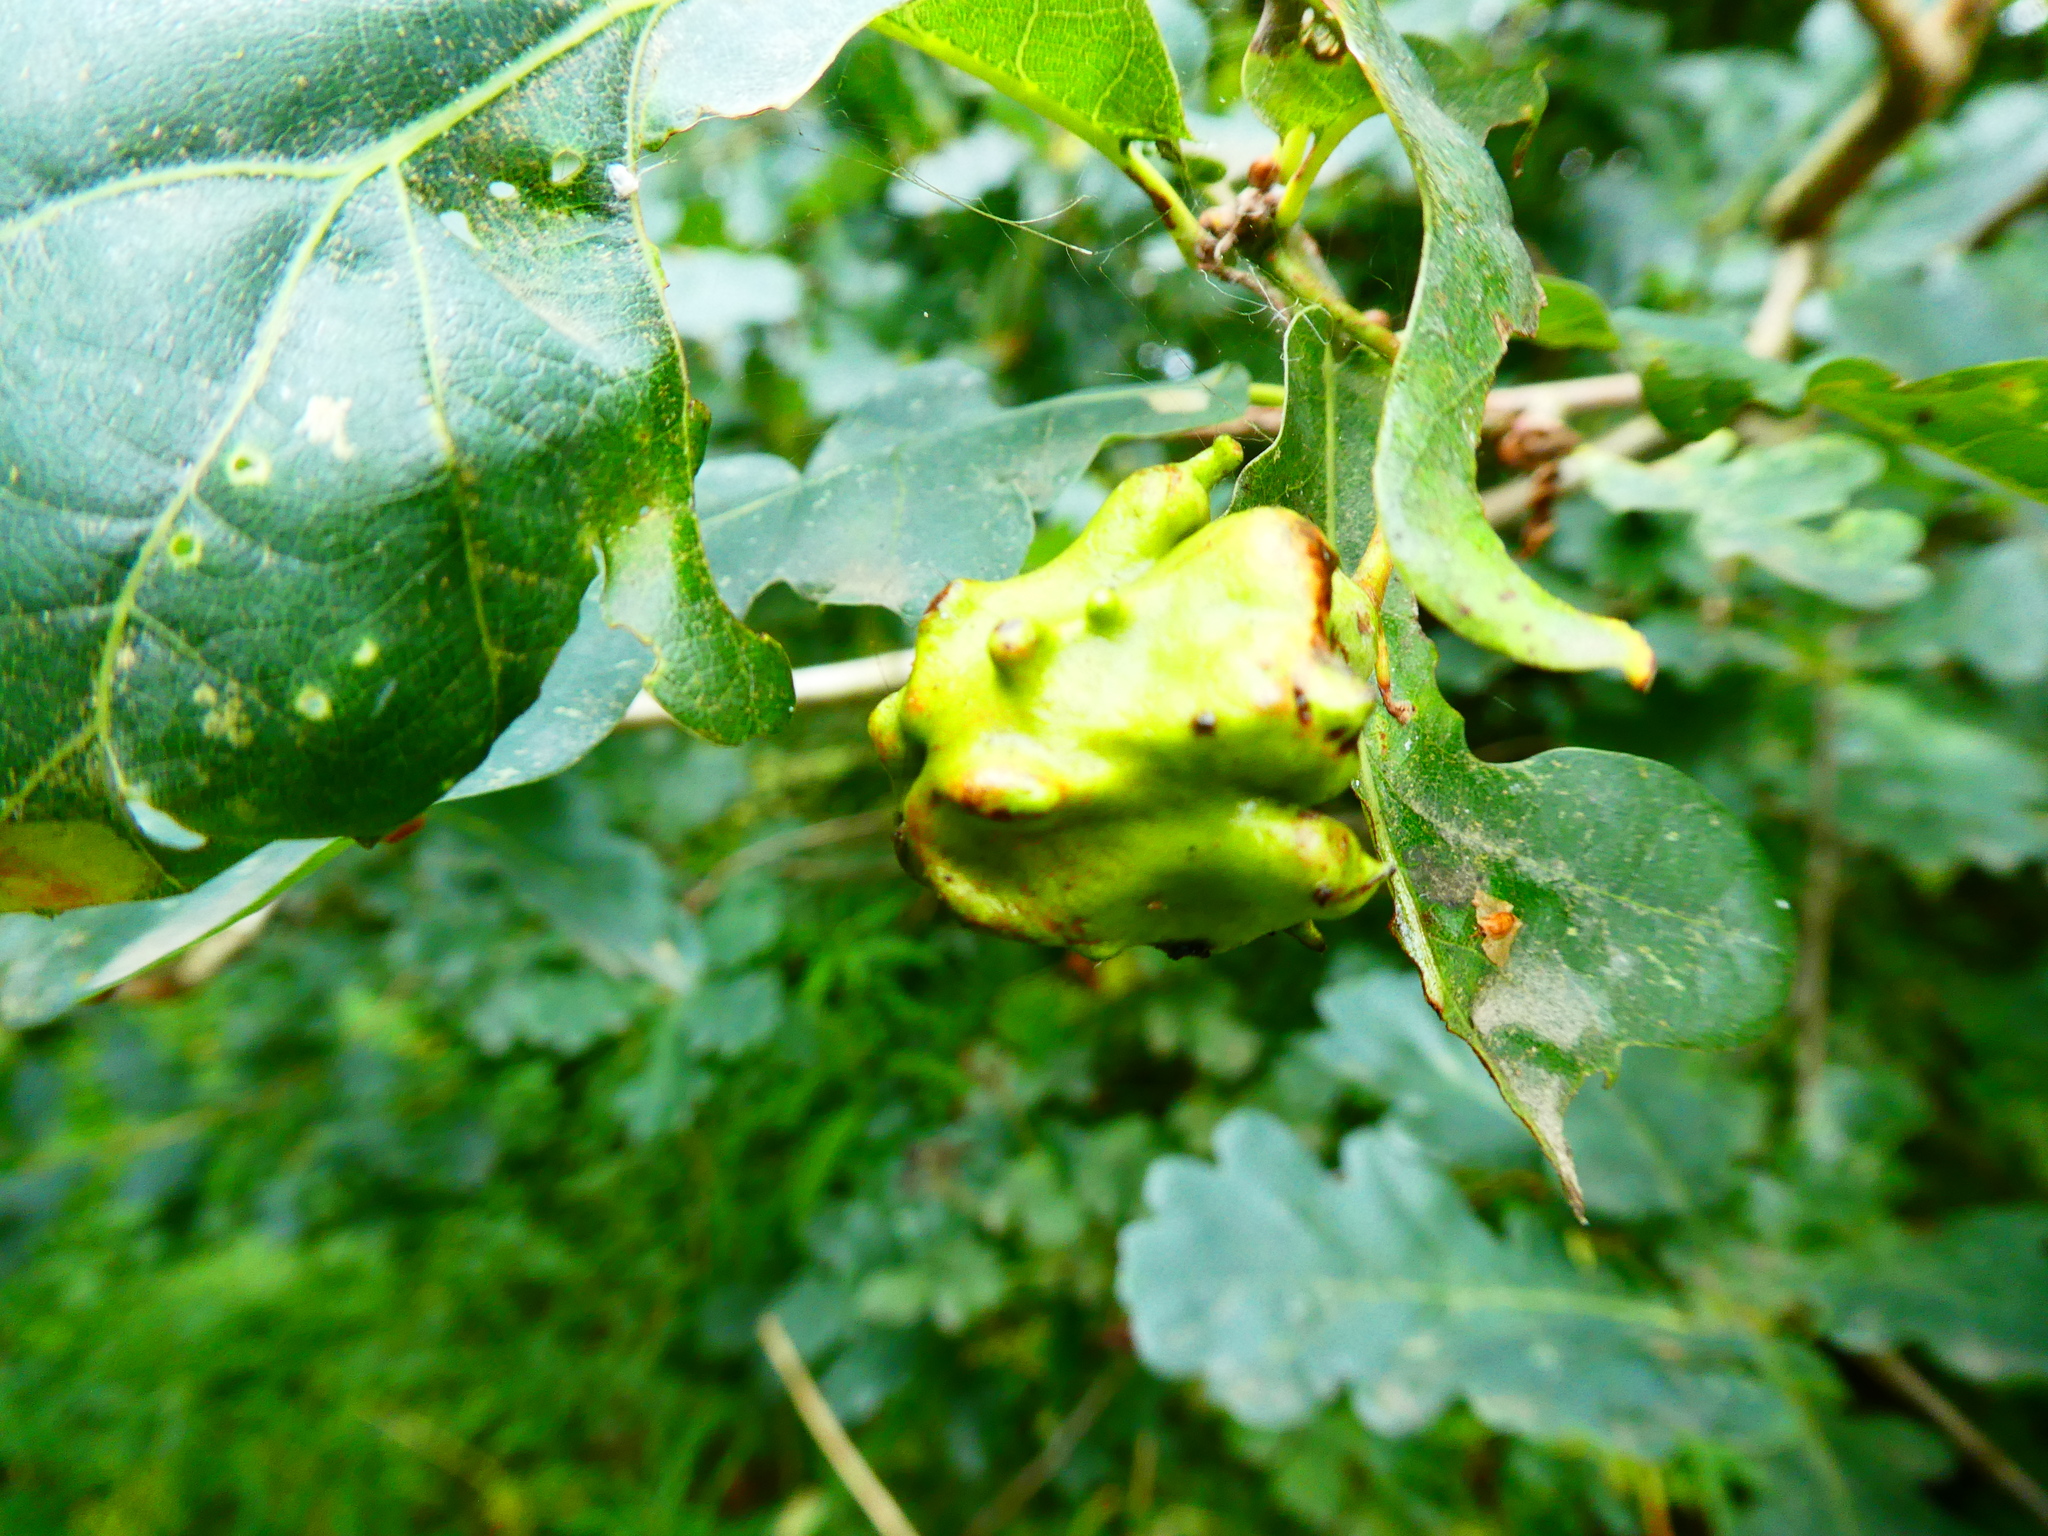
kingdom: Animalia
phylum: Arthropoda
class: Insecta
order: Hymenoptera
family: Cynipidae
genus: Andricus
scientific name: Andricus quercuscalicis
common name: Knopper gall
